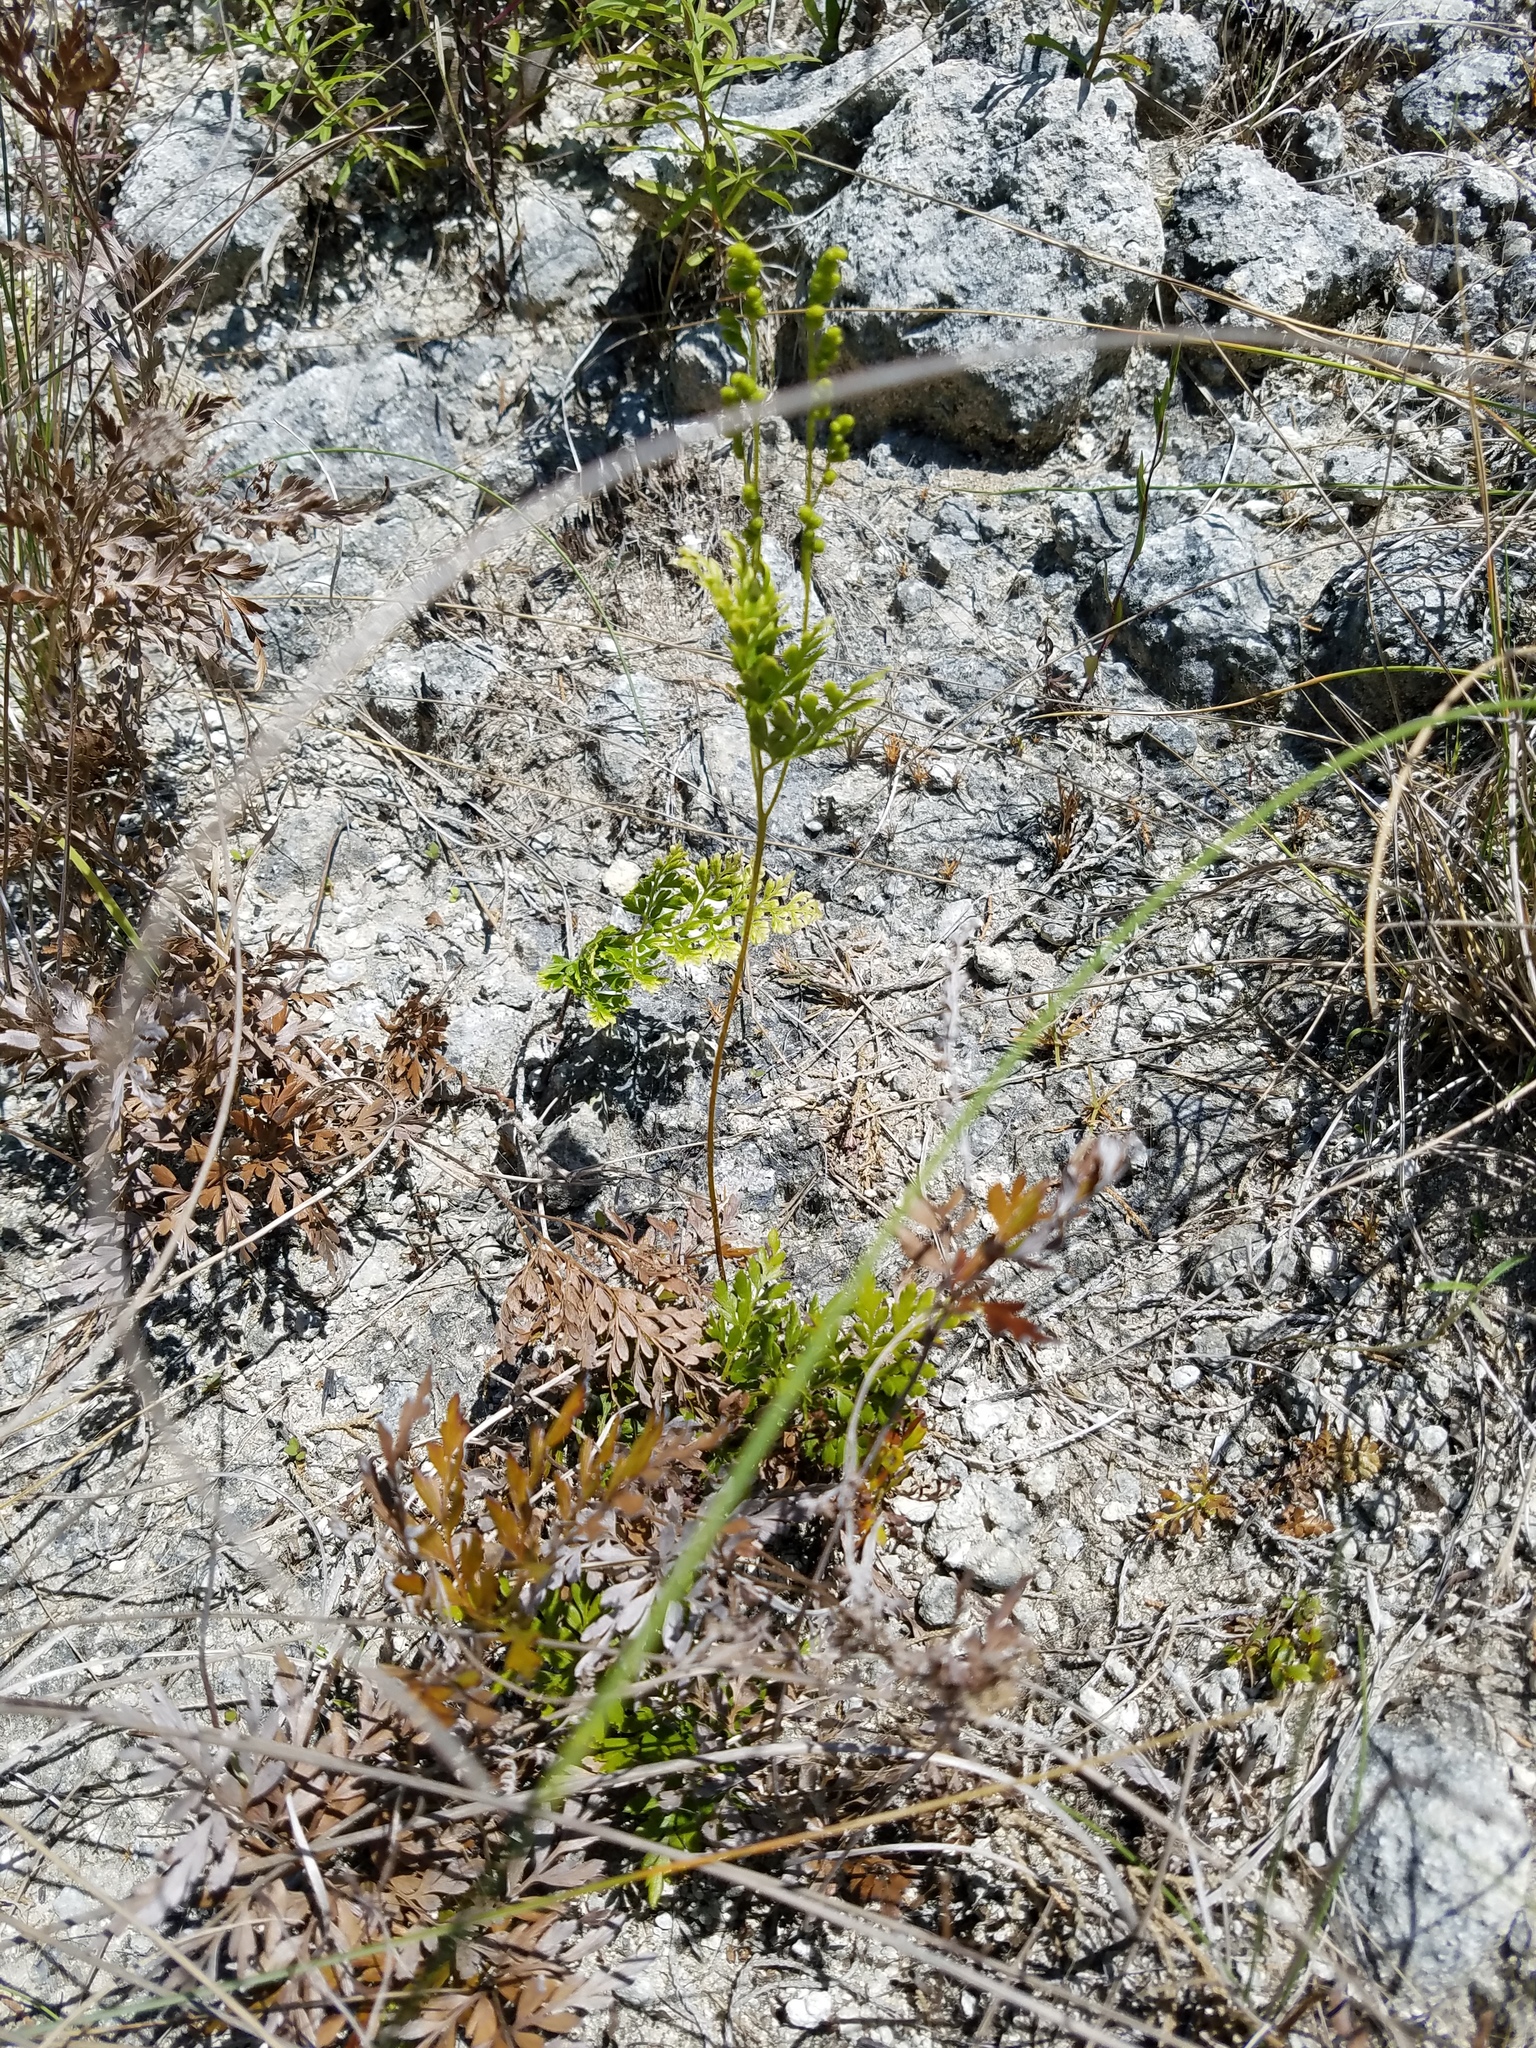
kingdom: Plantae
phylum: Tracheophyta
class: Polypodiopsida
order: Schizaeales
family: Anemiaceae
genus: Anemia
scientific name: Anemia adiantifolia
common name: Pine fern
